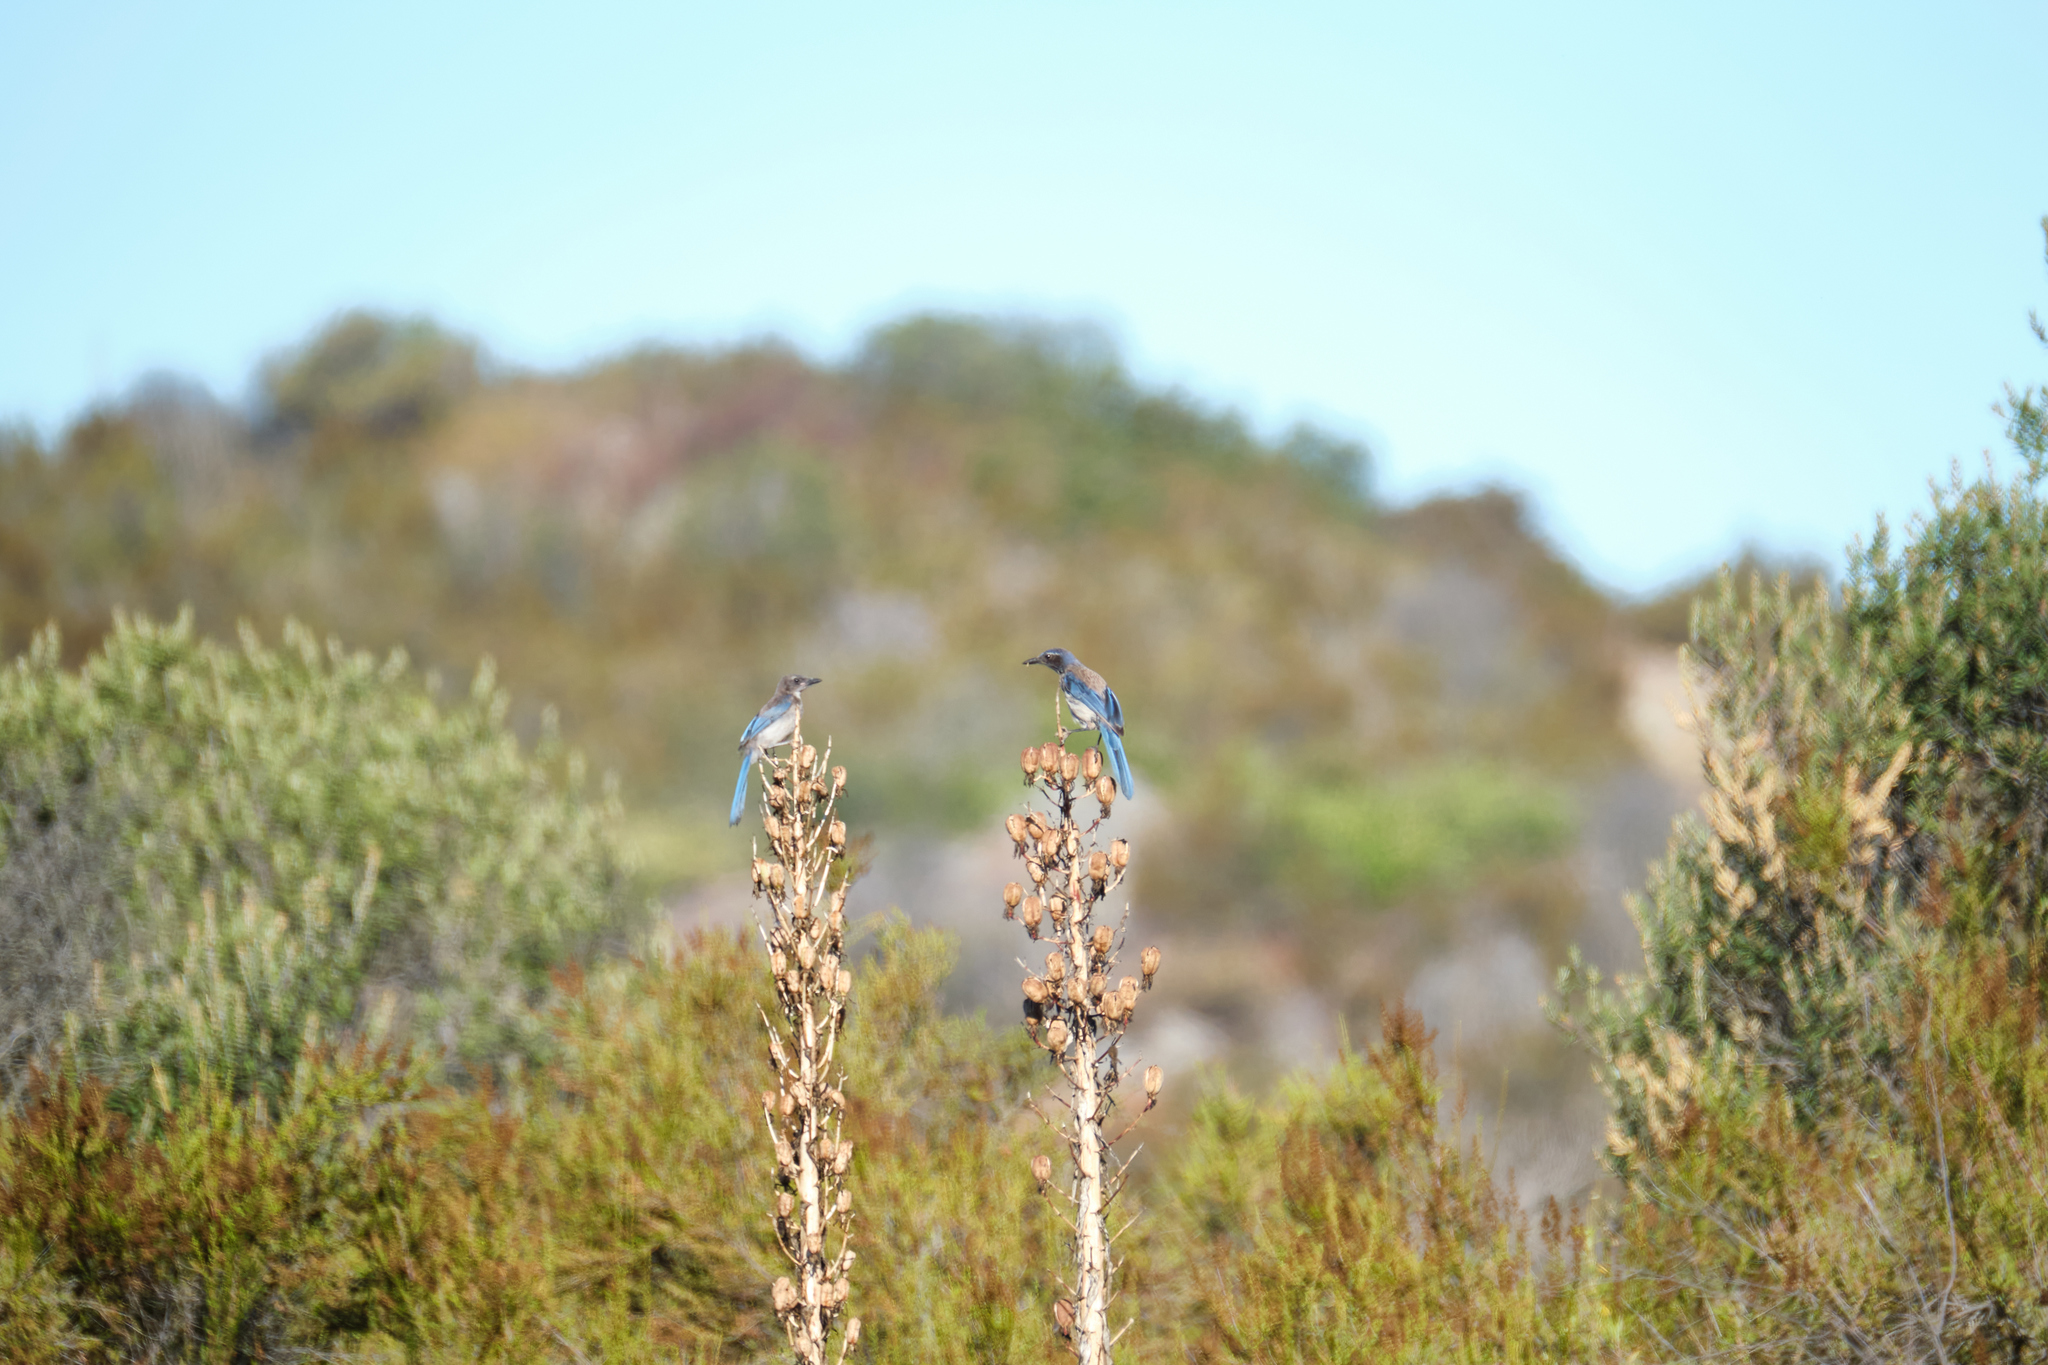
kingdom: Animalia
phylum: Chordata
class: Aves
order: Passeriformes
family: Corvidae
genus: Aphelocoma
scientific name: Aphelocoma californica
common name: California scrub-jay
